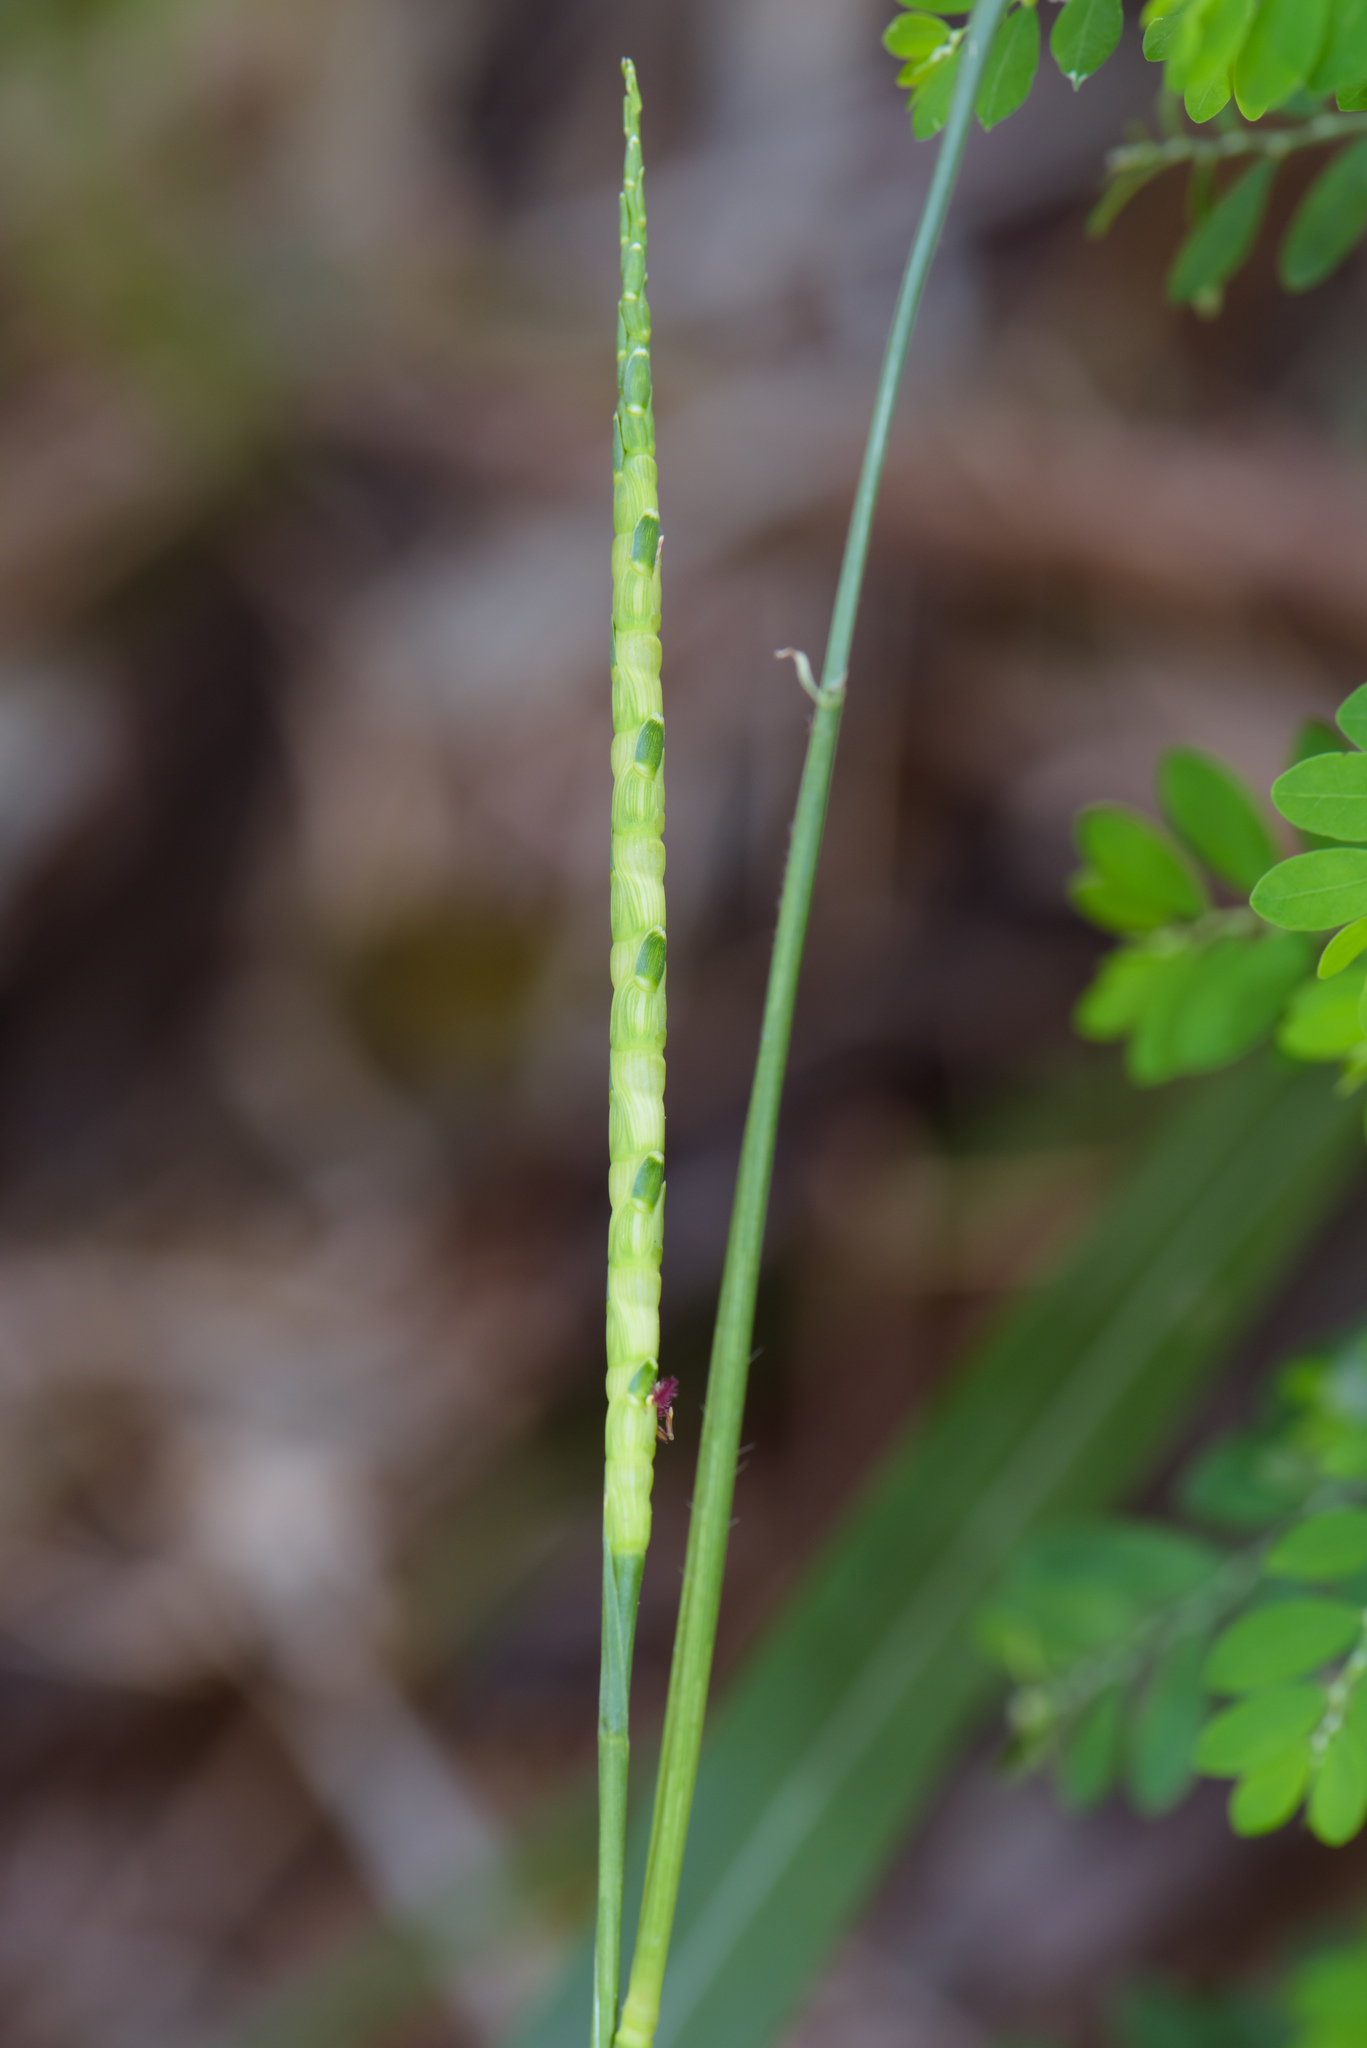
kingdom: Plantae
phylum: Tracheophyta
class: Liliopsida
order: Poales
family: Poaceae
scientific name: Poaceae
